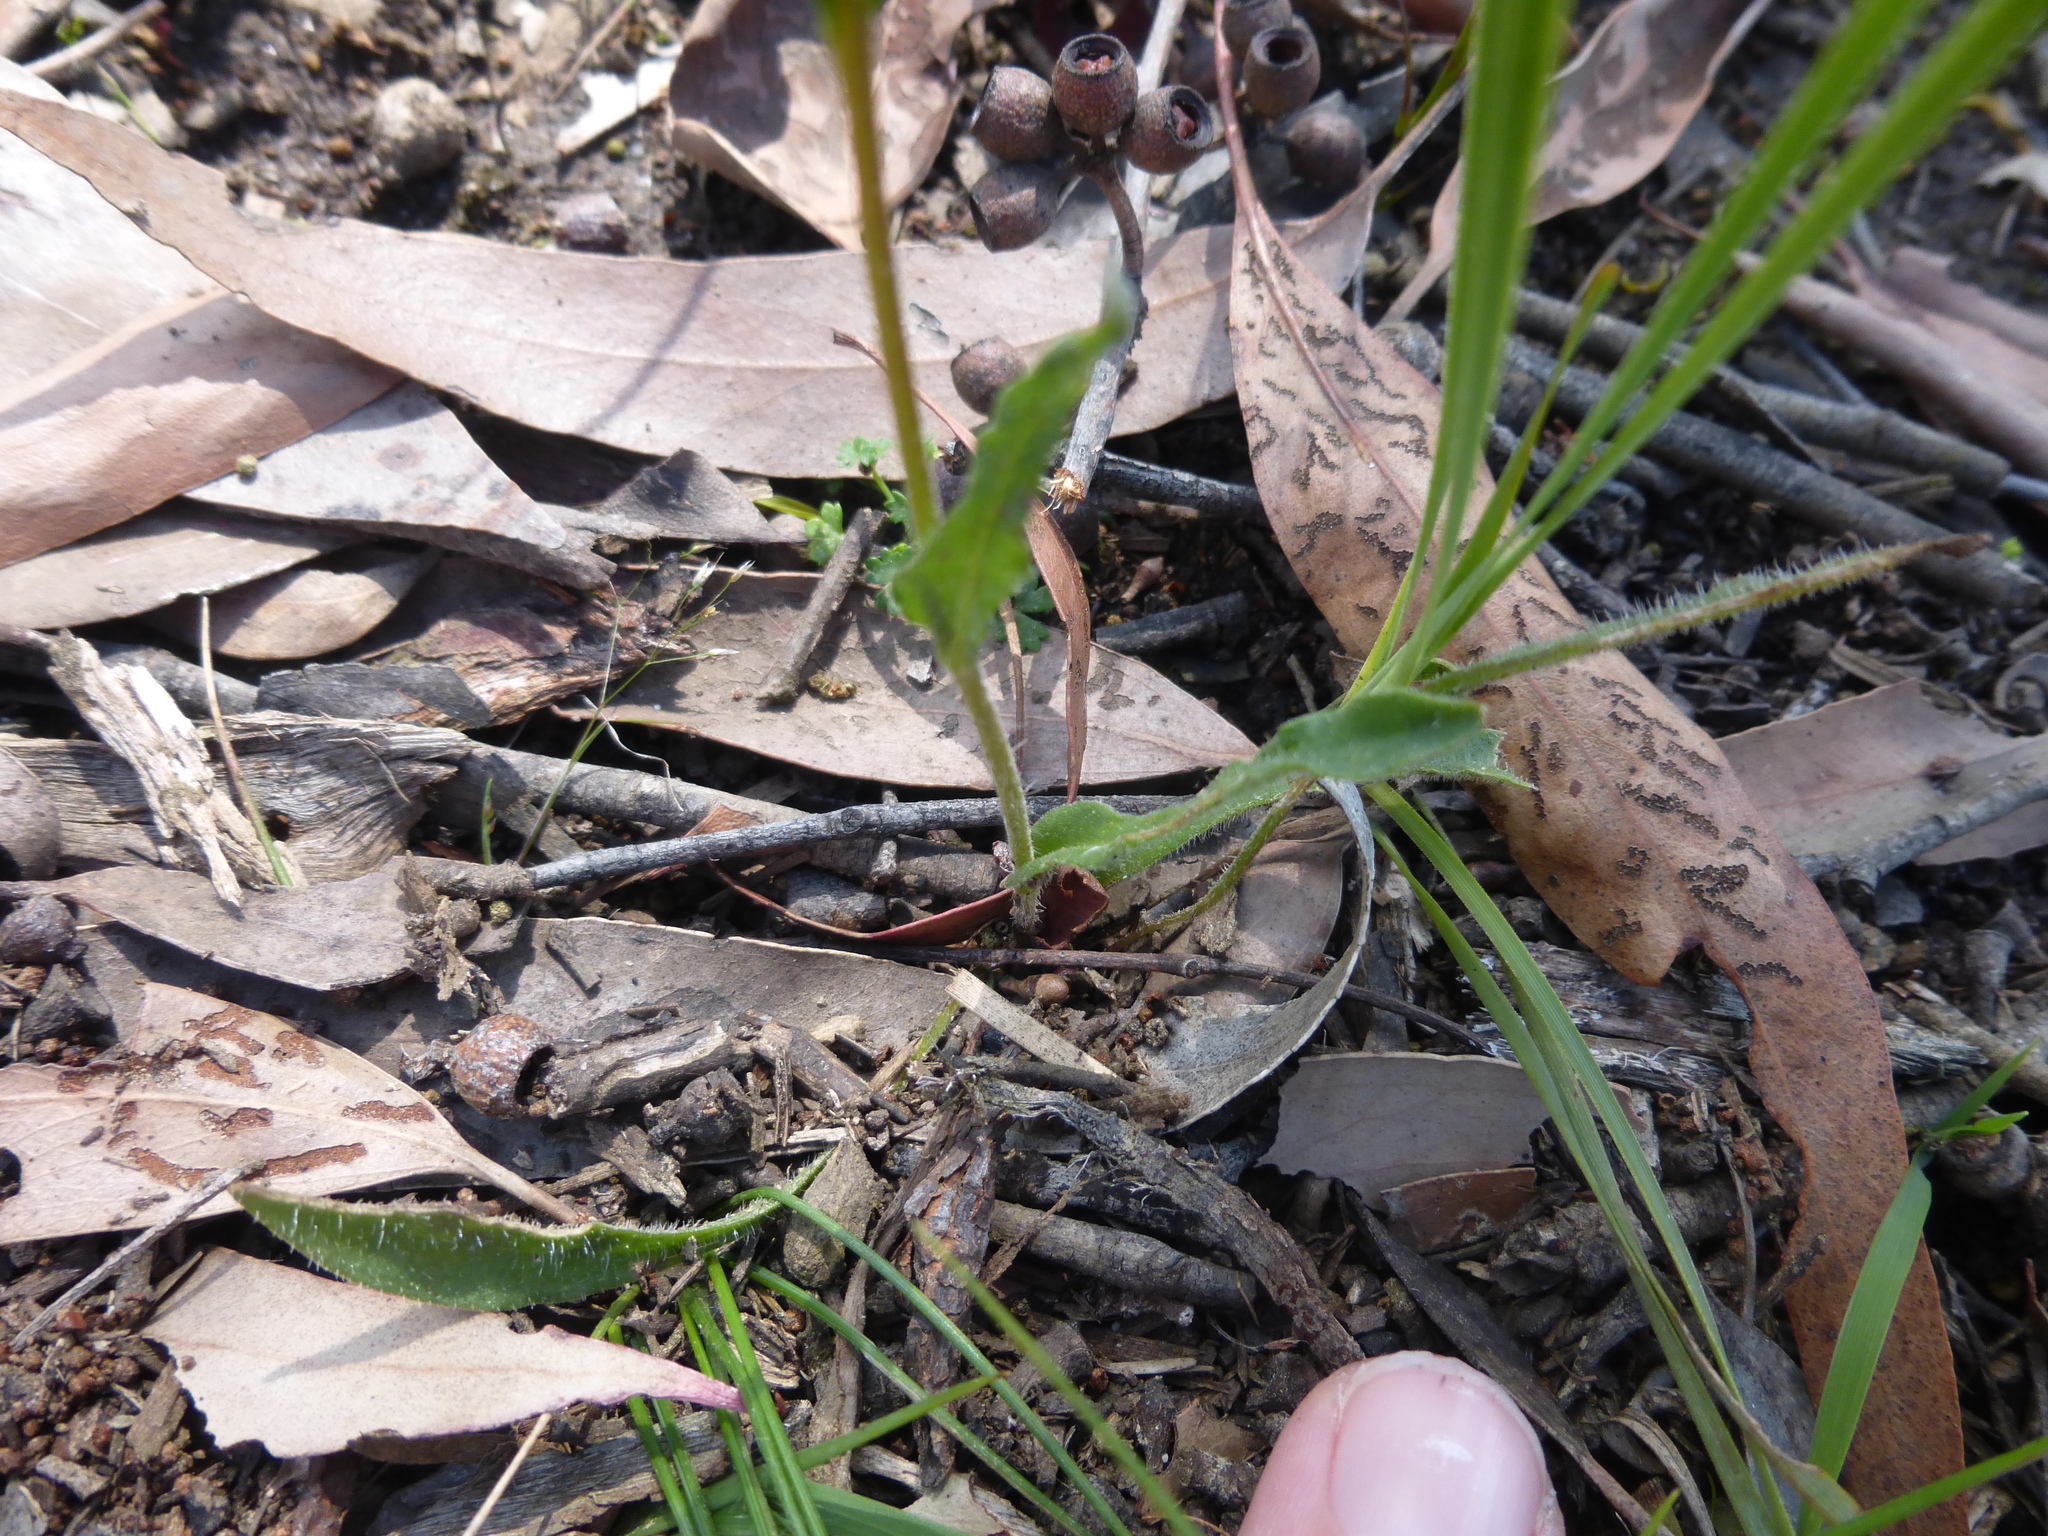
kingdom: Plantae
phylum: Tracheophyta
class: Magnoliopsida
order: Asterales
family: Asteraceae
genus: Craspedia
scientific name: Craspedia variabilis
